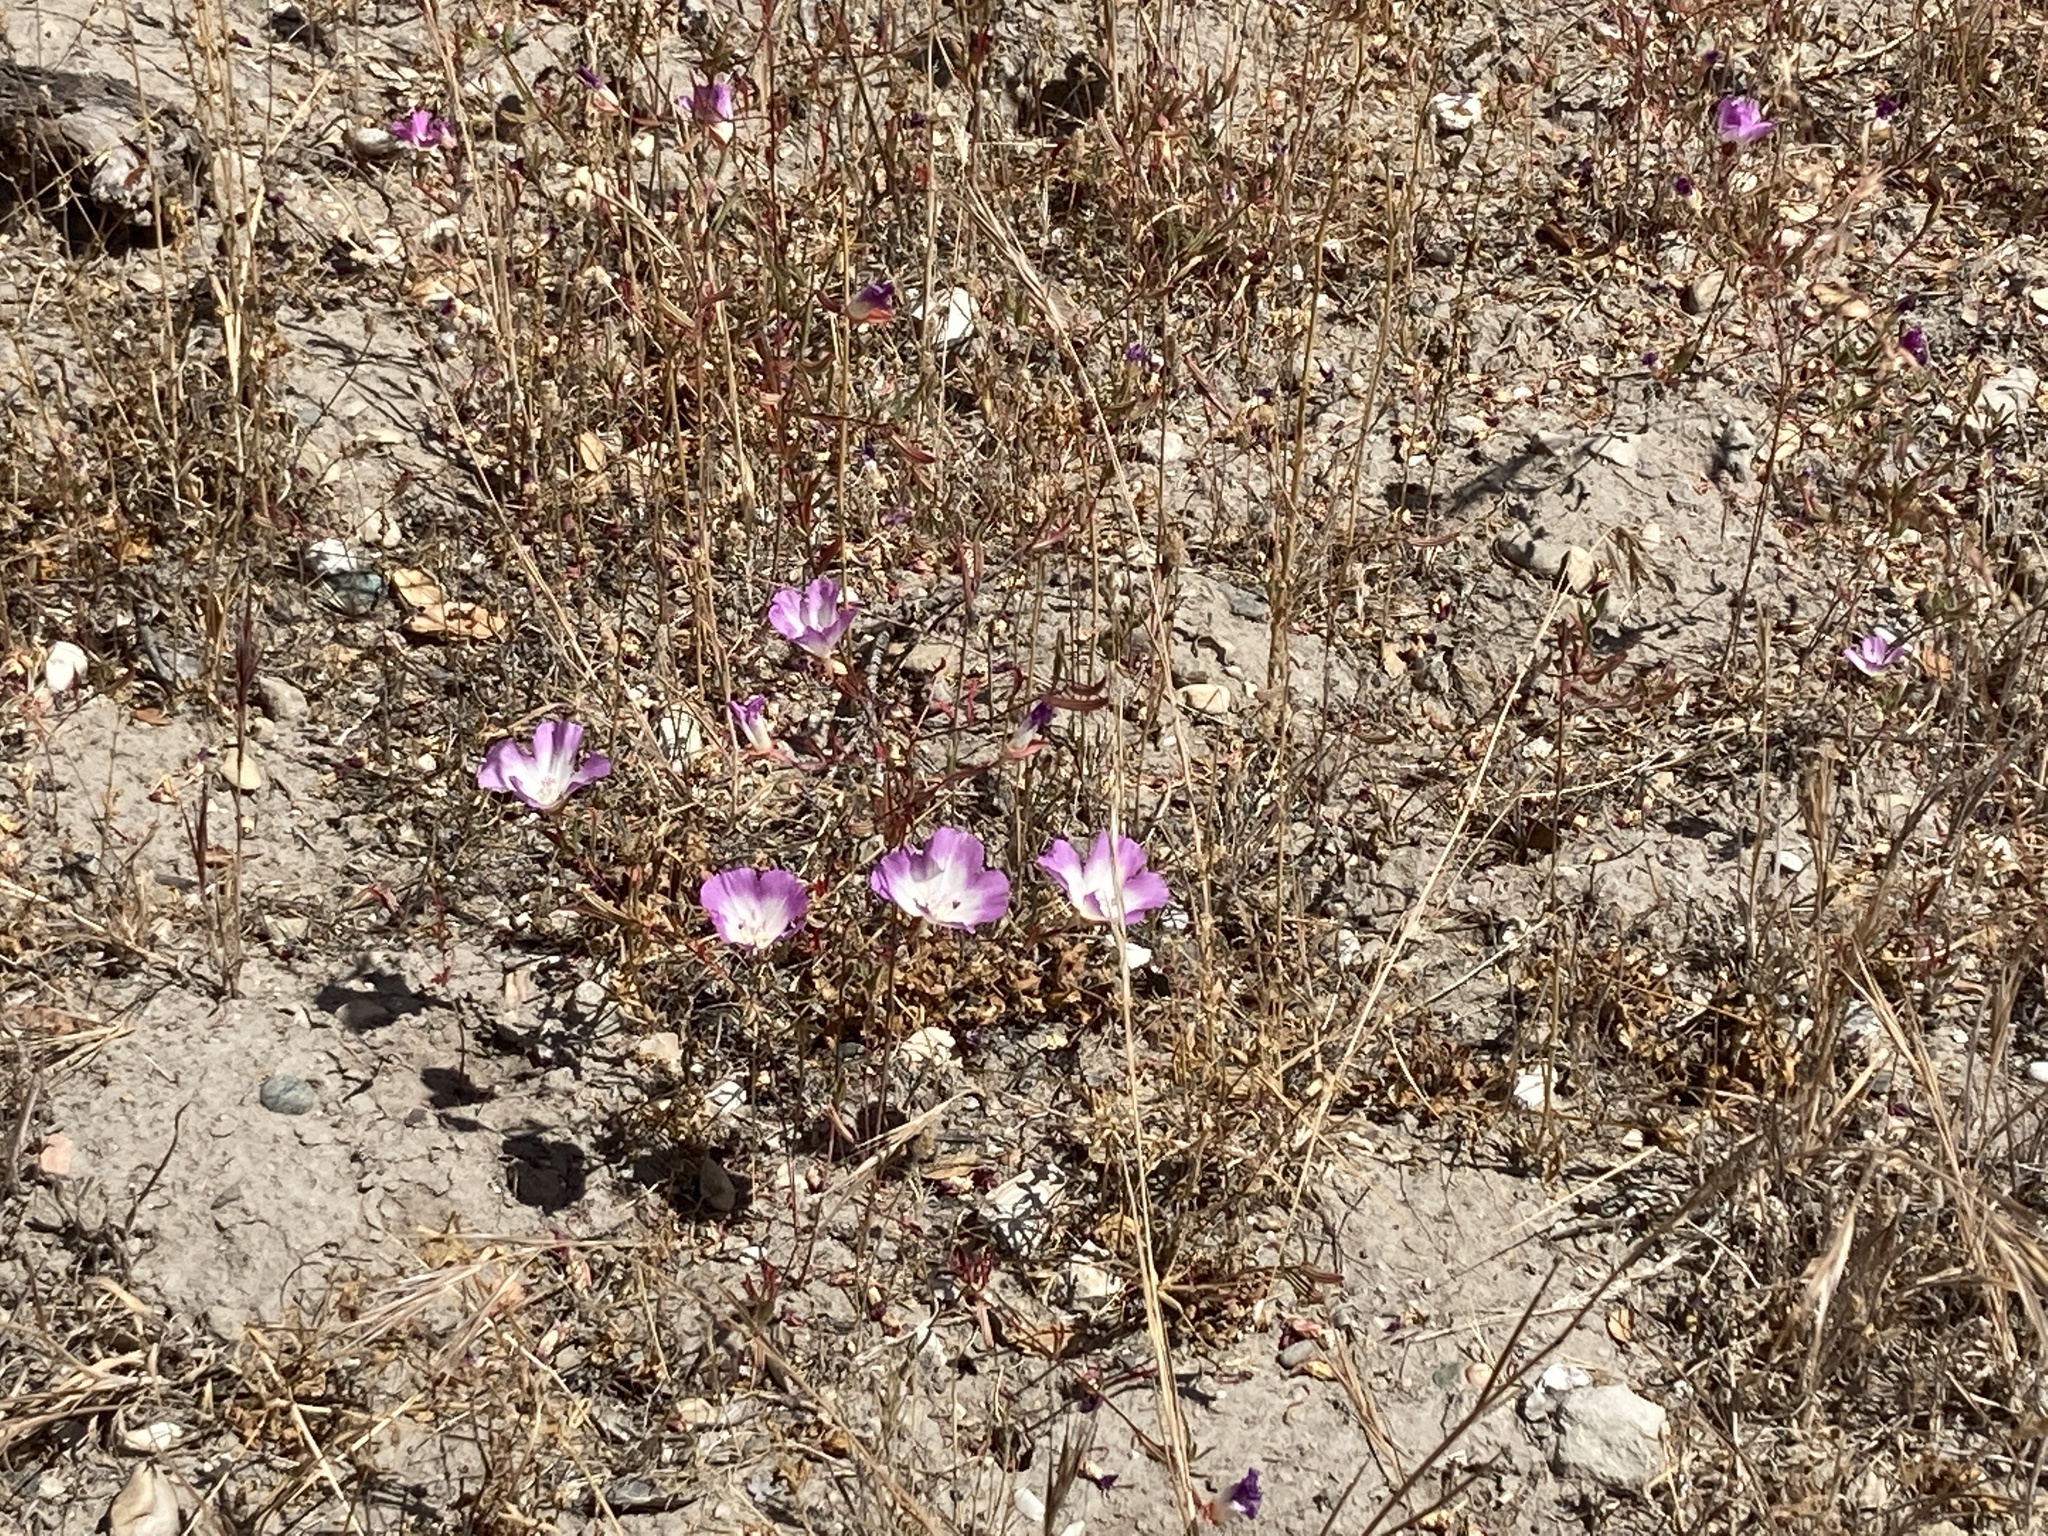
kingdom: Plantae
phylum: Tracheophyta
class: Magnoliopsida
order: Myrtales
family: Onagraceae
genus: Clarkia
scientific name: Clarkia speciosa
